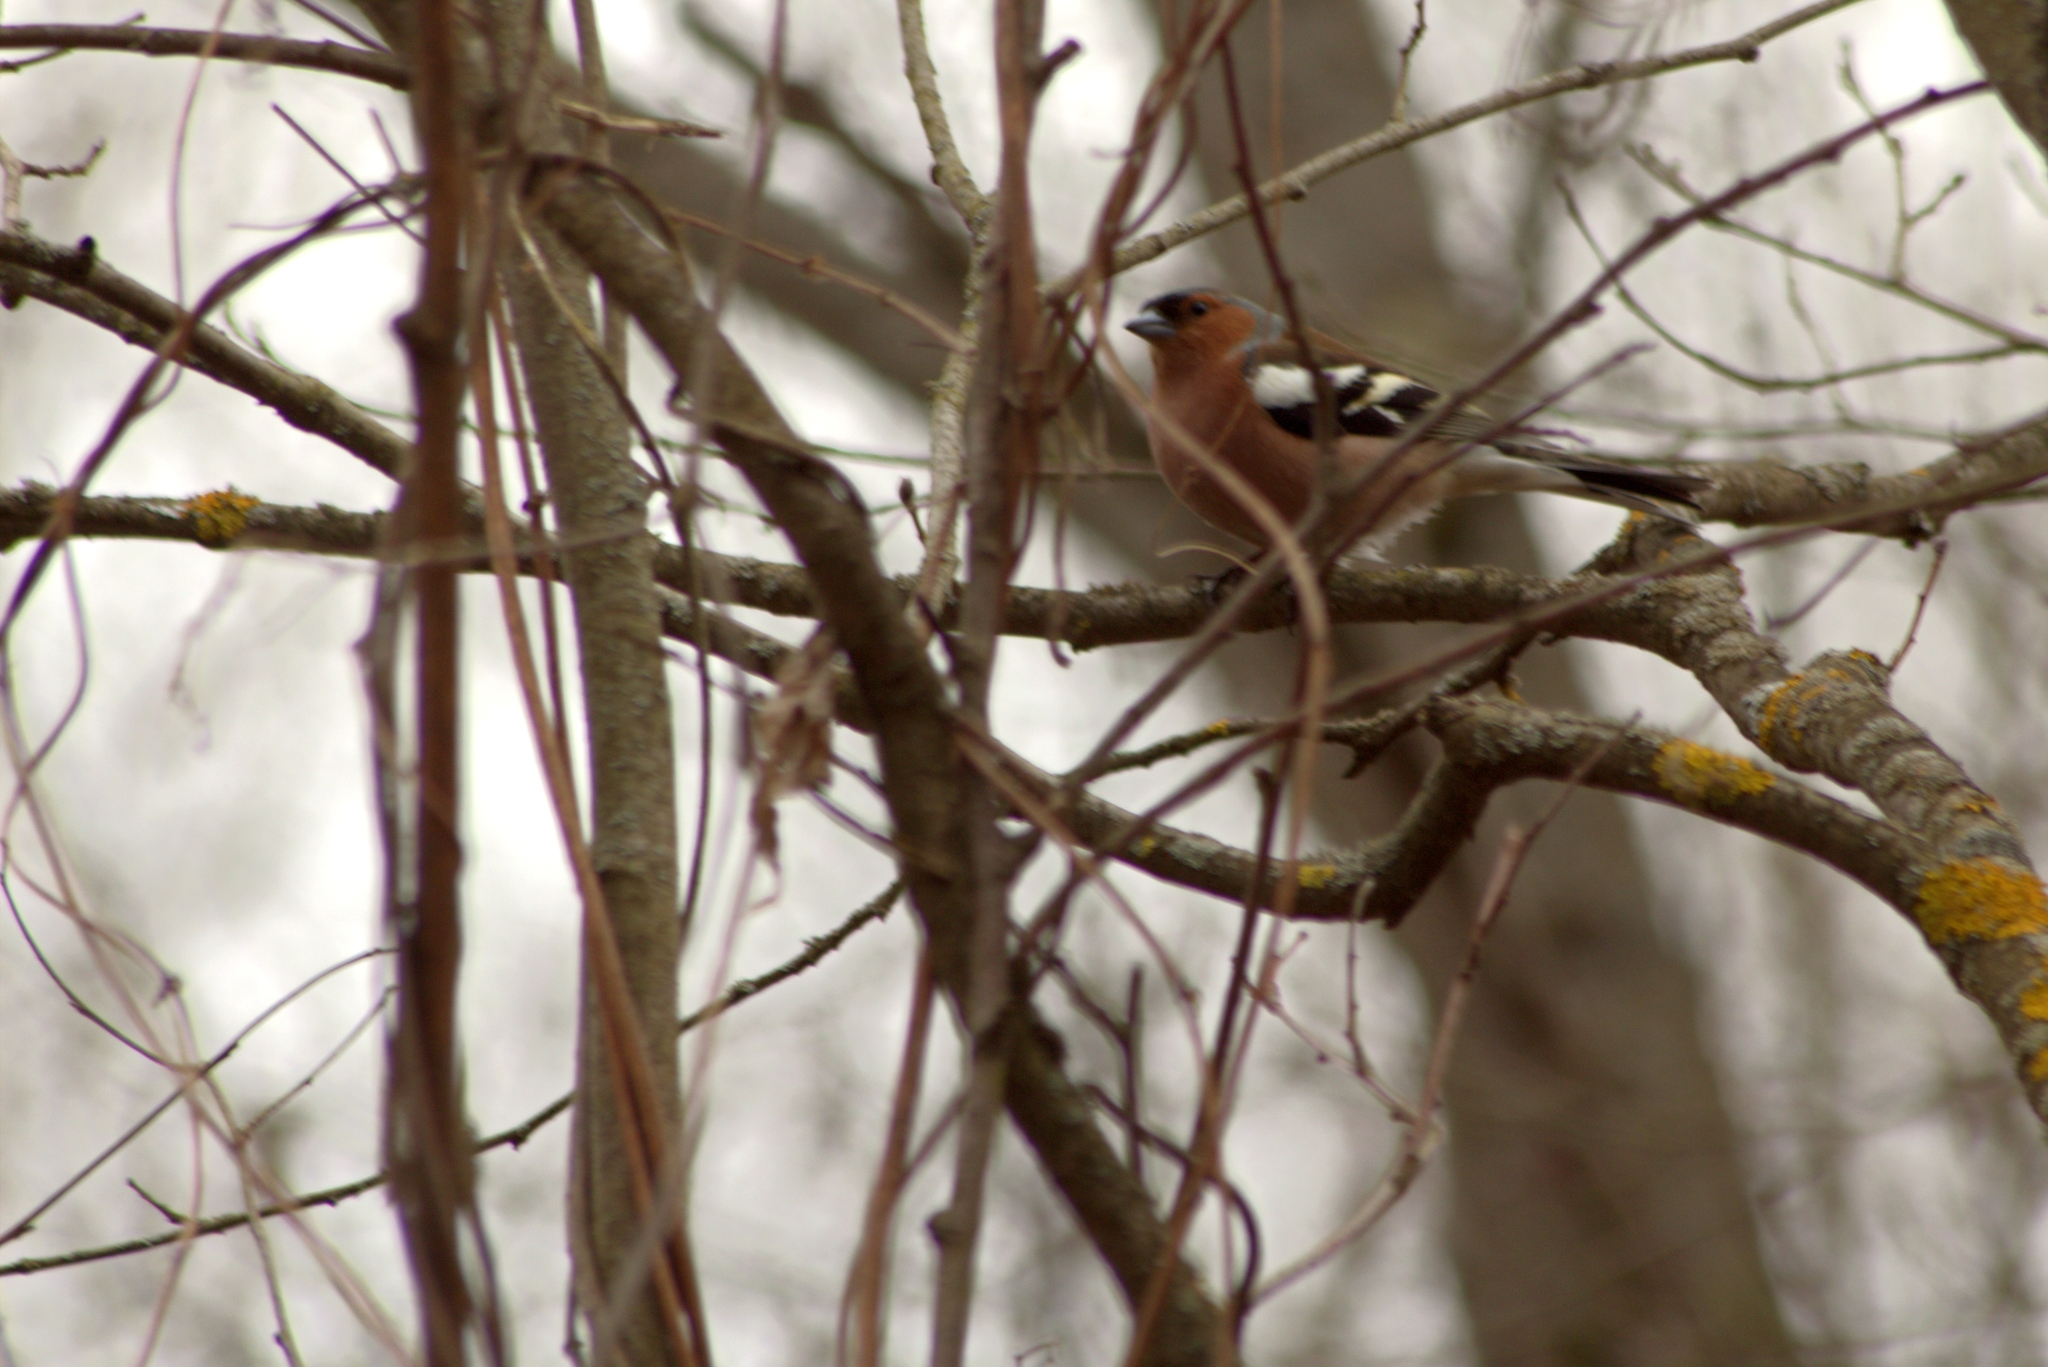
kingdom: Animalia
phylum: Chordata
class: Aves
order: Passeriformes
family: Fringillidae
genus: Fringilla
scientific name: Fringilla coelebs
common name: Common chaffinch
